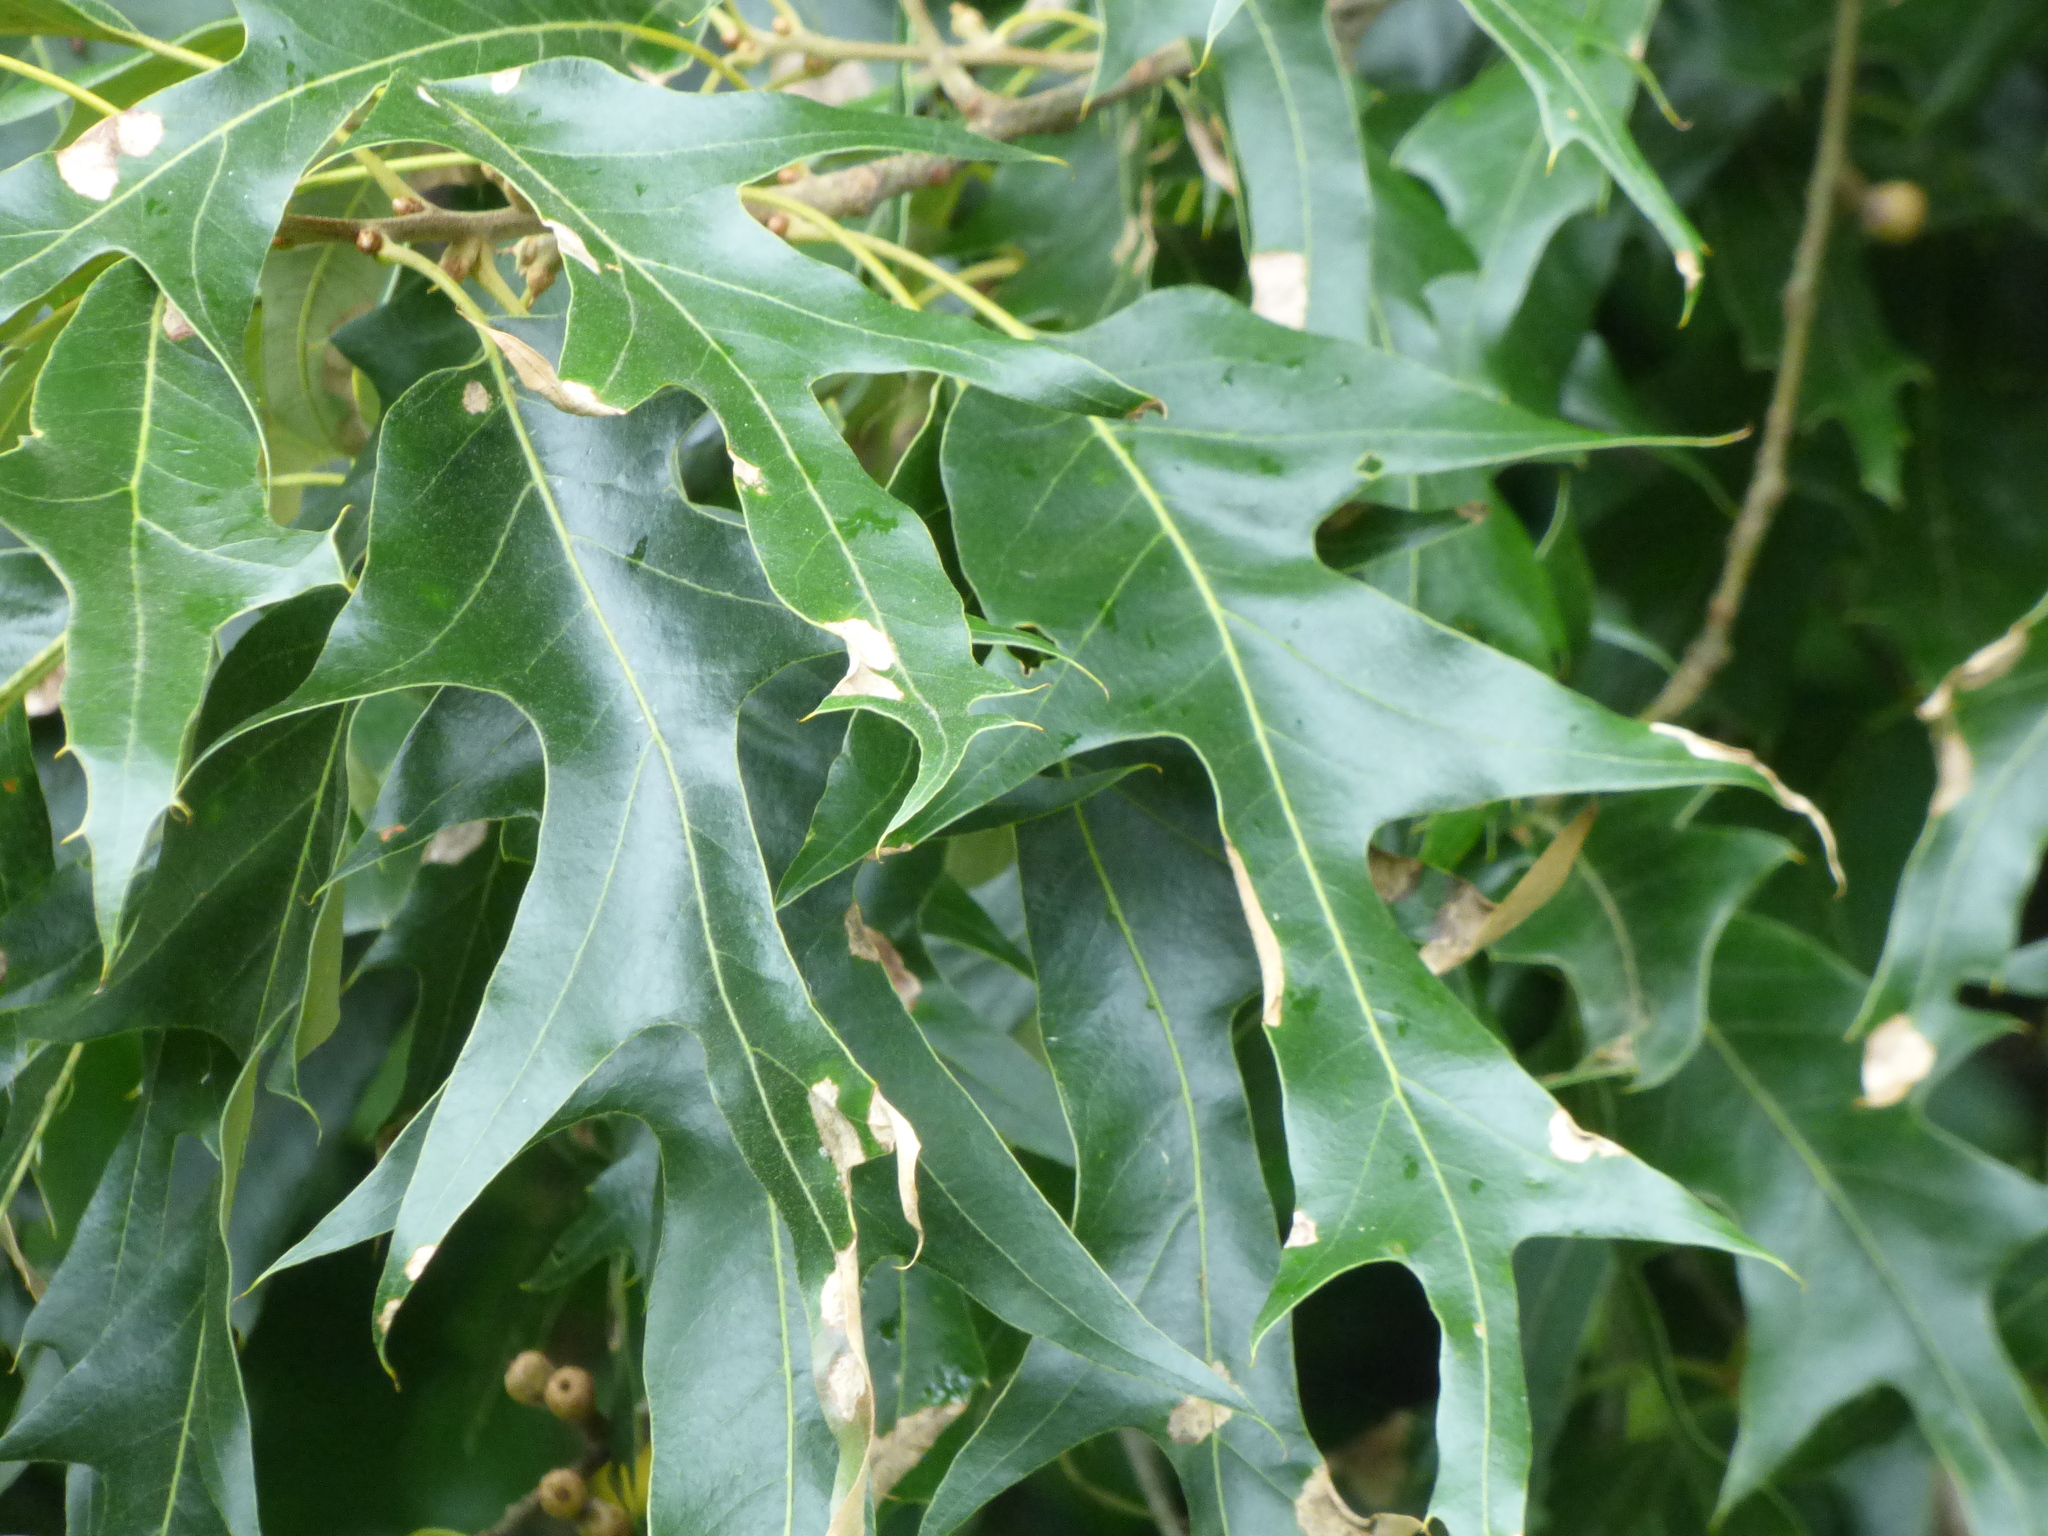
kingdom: Plantae
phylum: Tracheophyta
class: Magnoliopsida
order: Fagales
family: Fagaceae
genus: Quercus
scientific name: Quercus falcata
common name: Southern red oak
